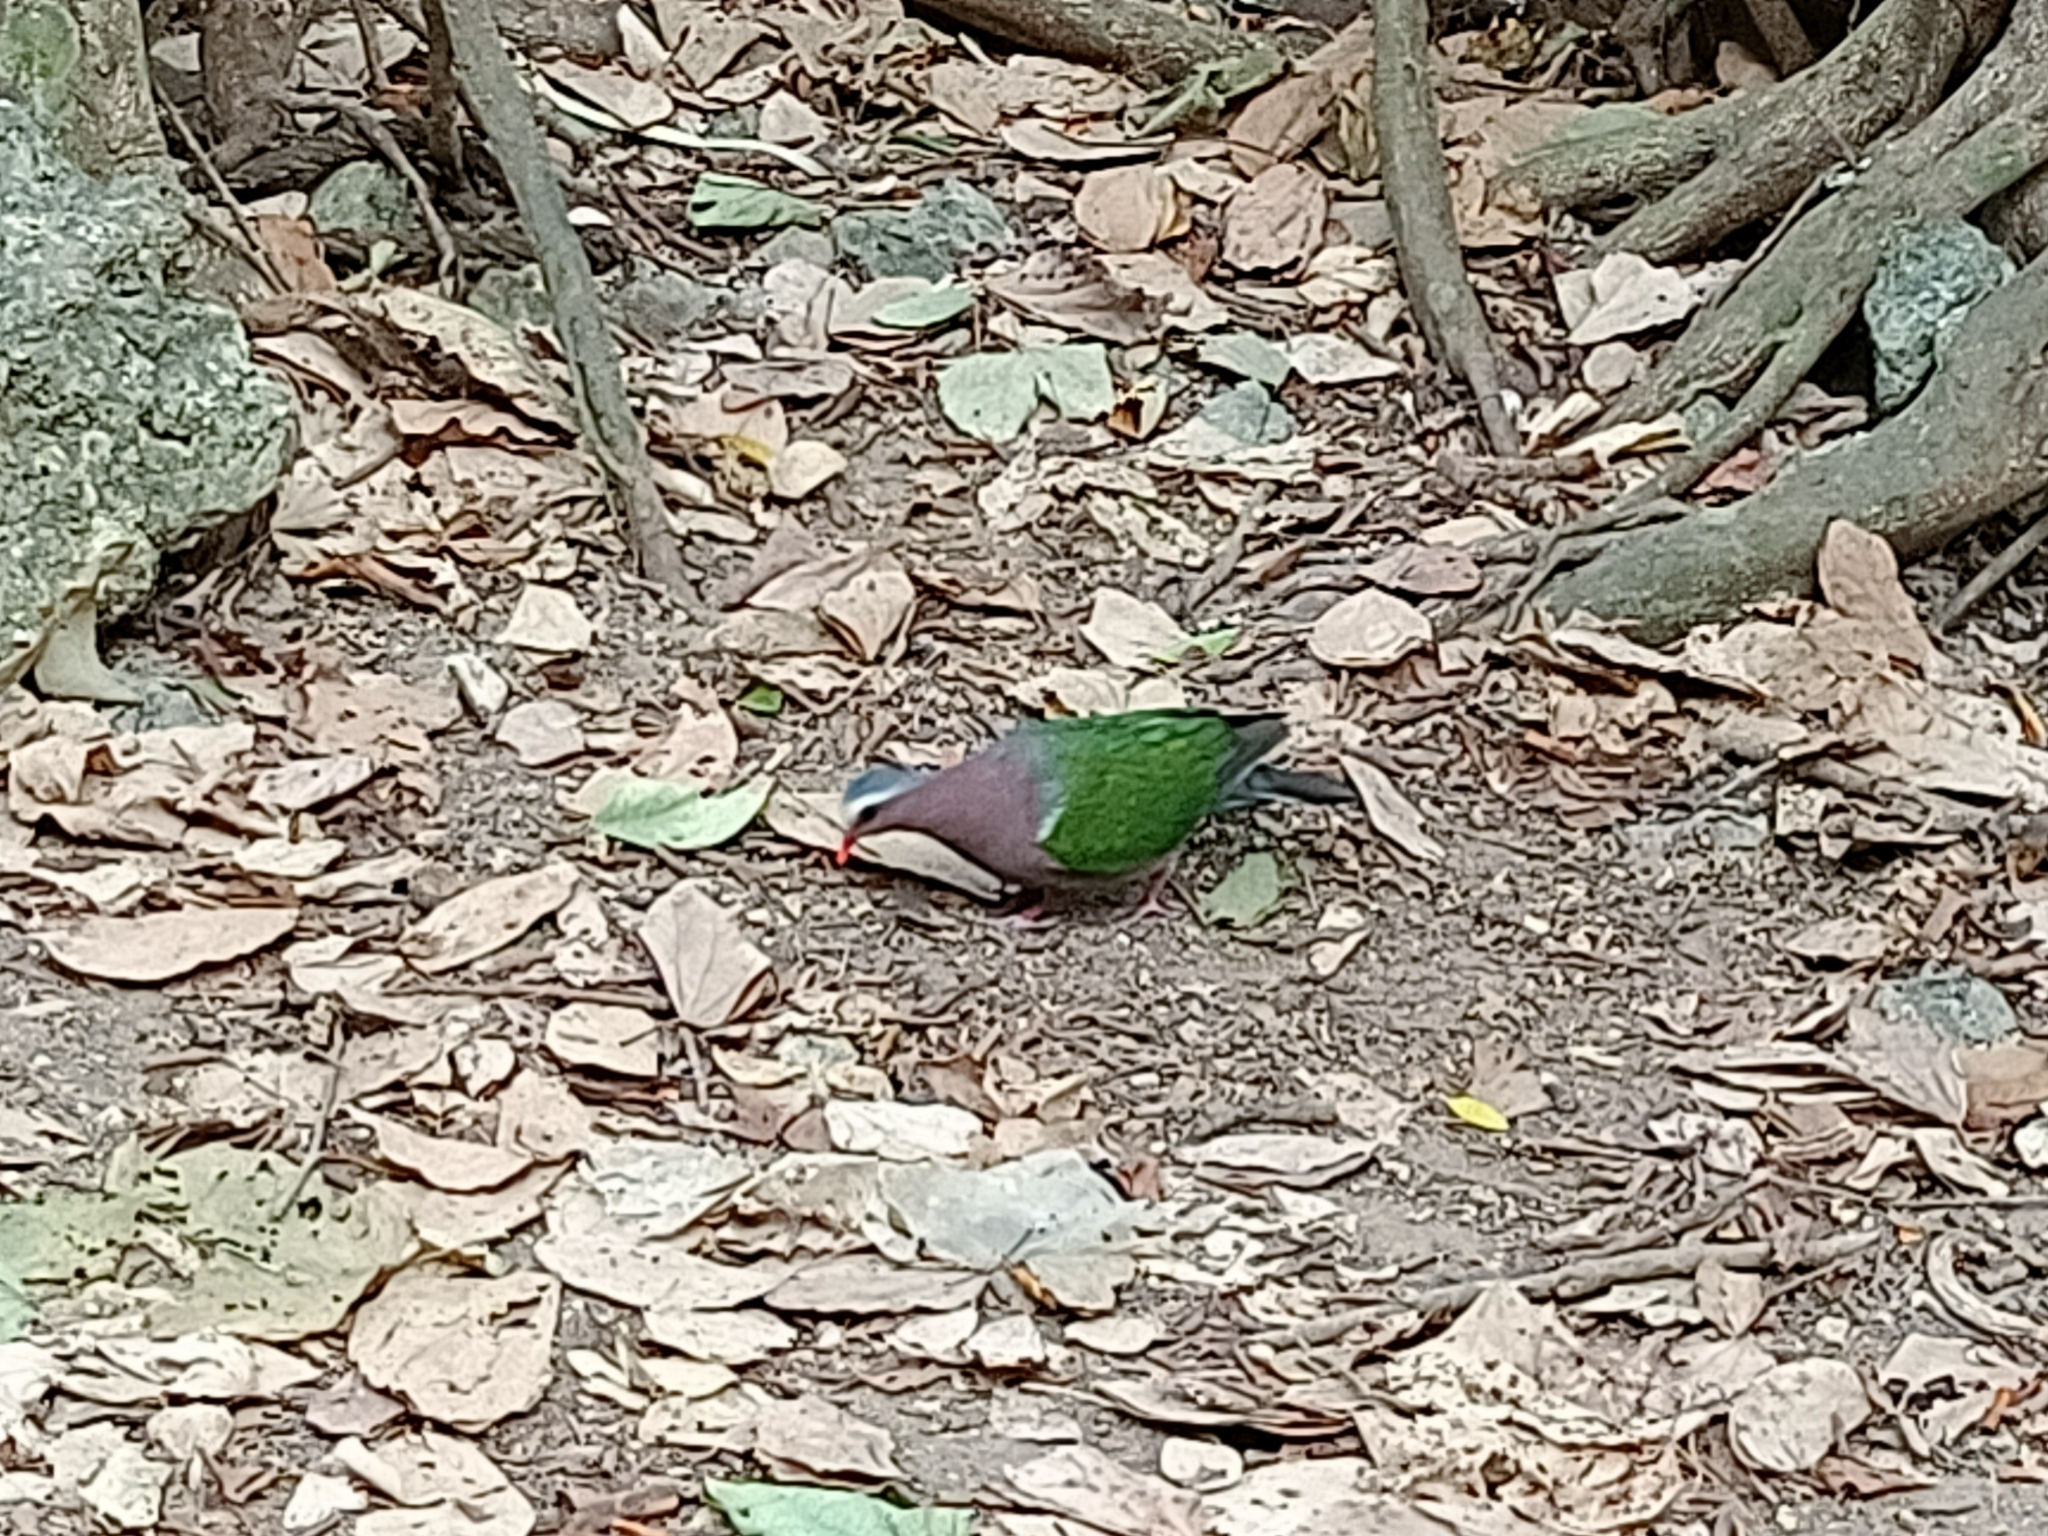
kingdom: Animalia
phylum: Chordata
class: Aves
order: Columbiformes
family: Columbidae
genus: Chalcophaps
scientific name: Chalcophaps indica
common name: Common emerald dove
